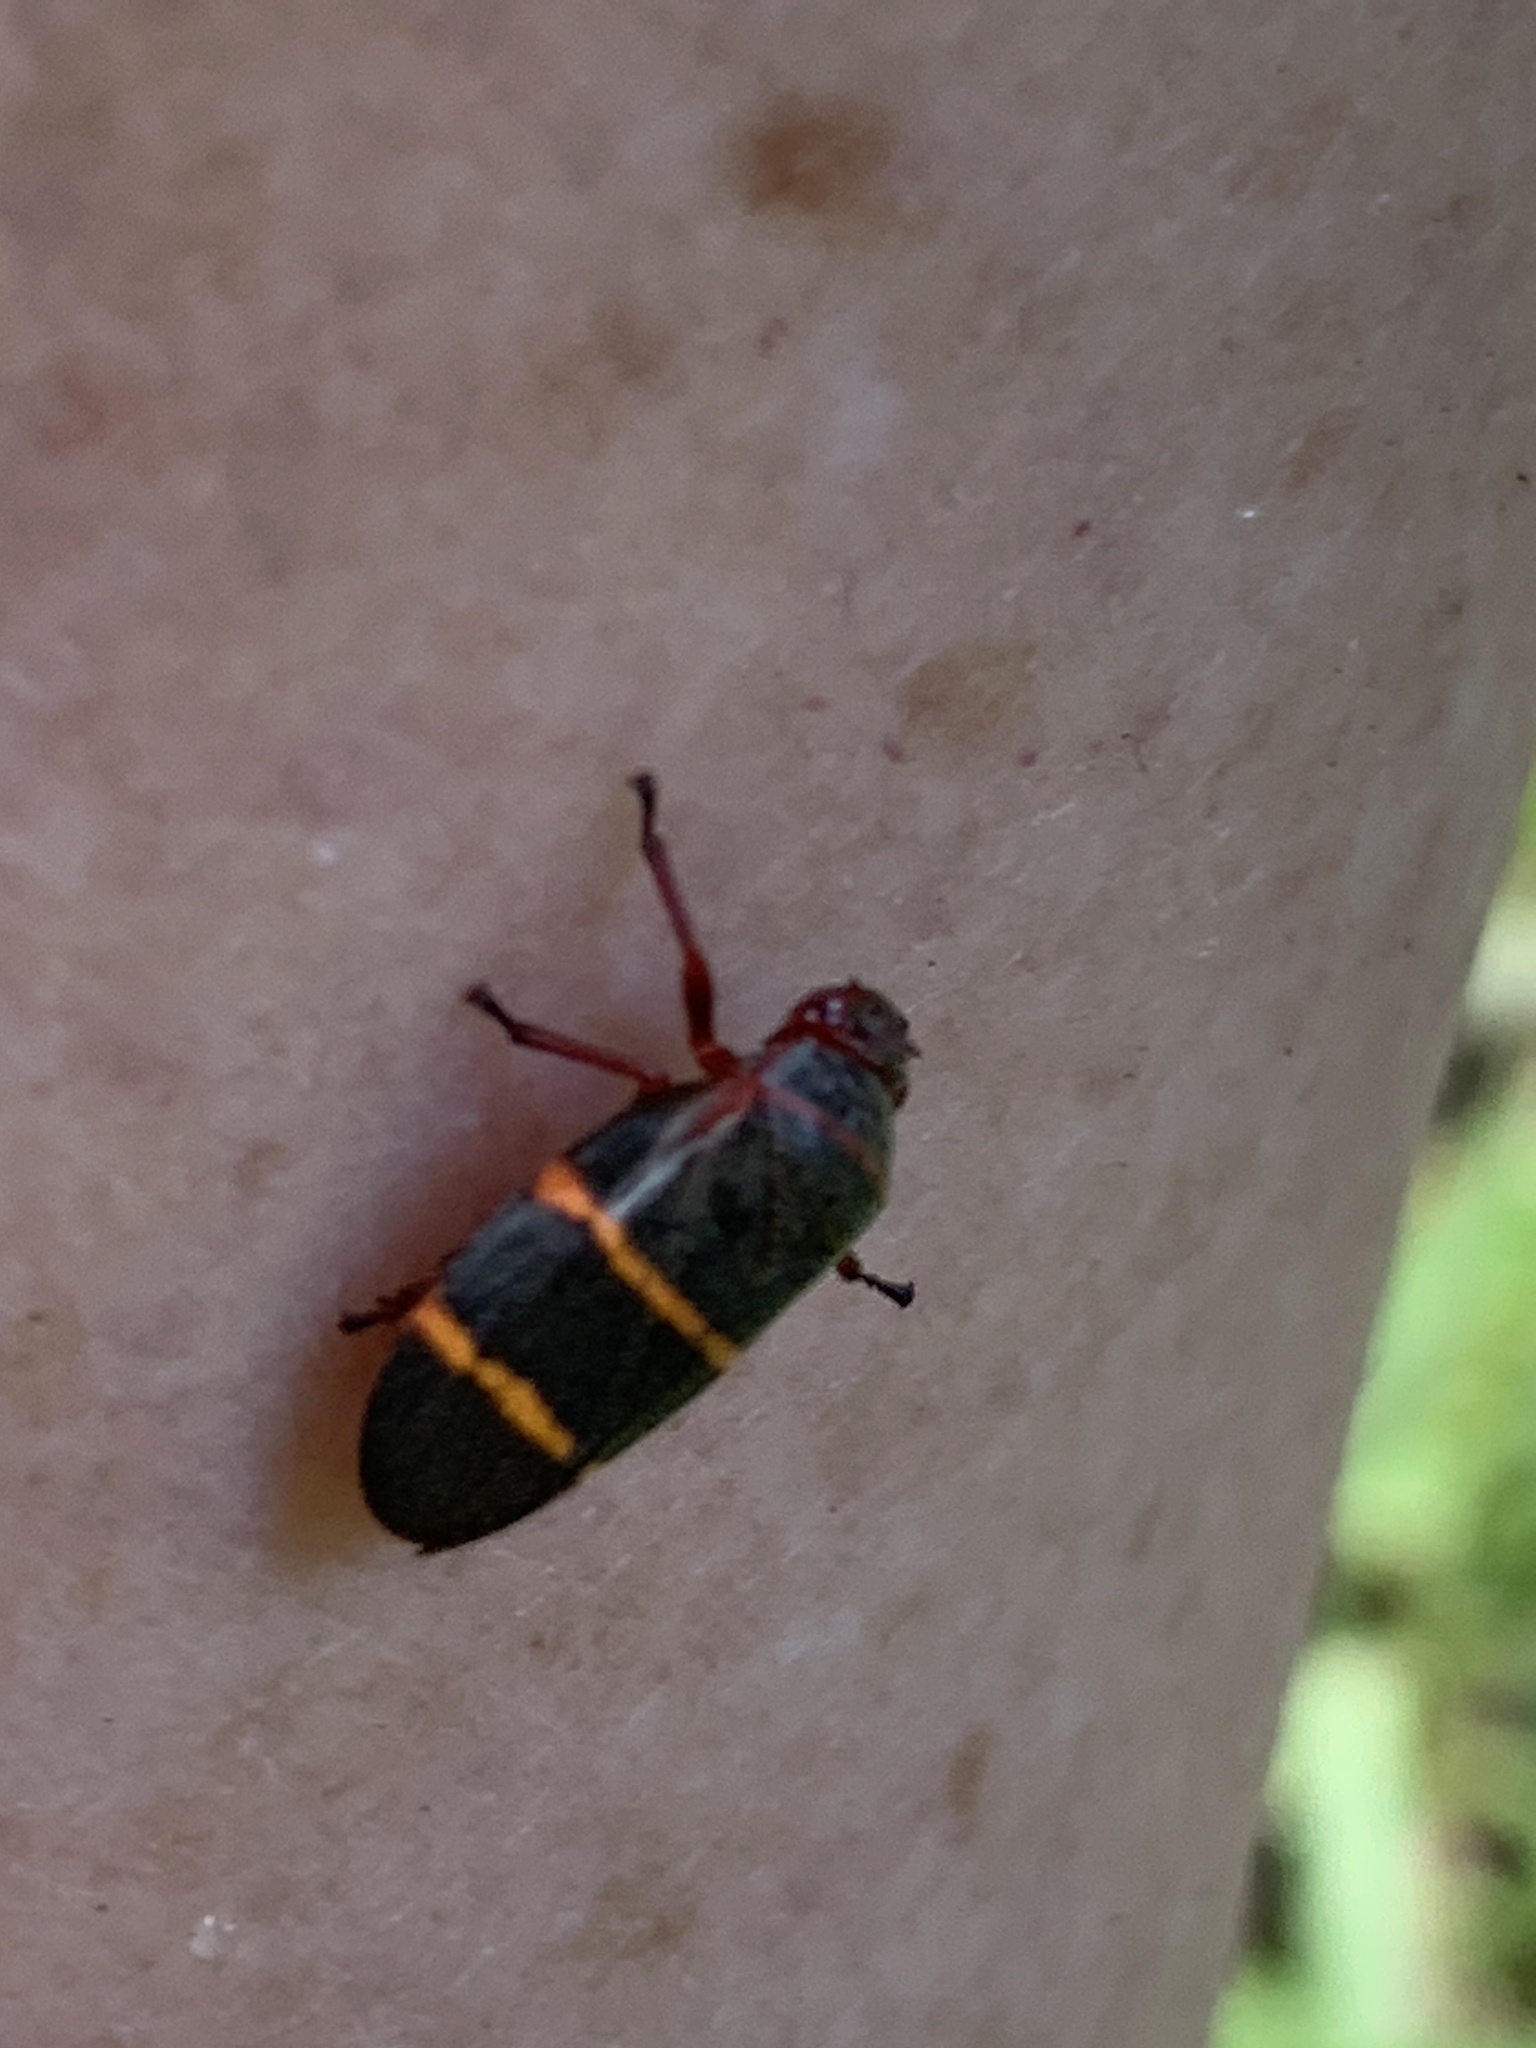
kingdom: Animalia
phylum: Arthropoda
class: Insecta
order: Hemiptera
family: Cercopidae
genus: Prosapia
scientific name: Prosapia bicincta
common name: Twolined spittlebug
